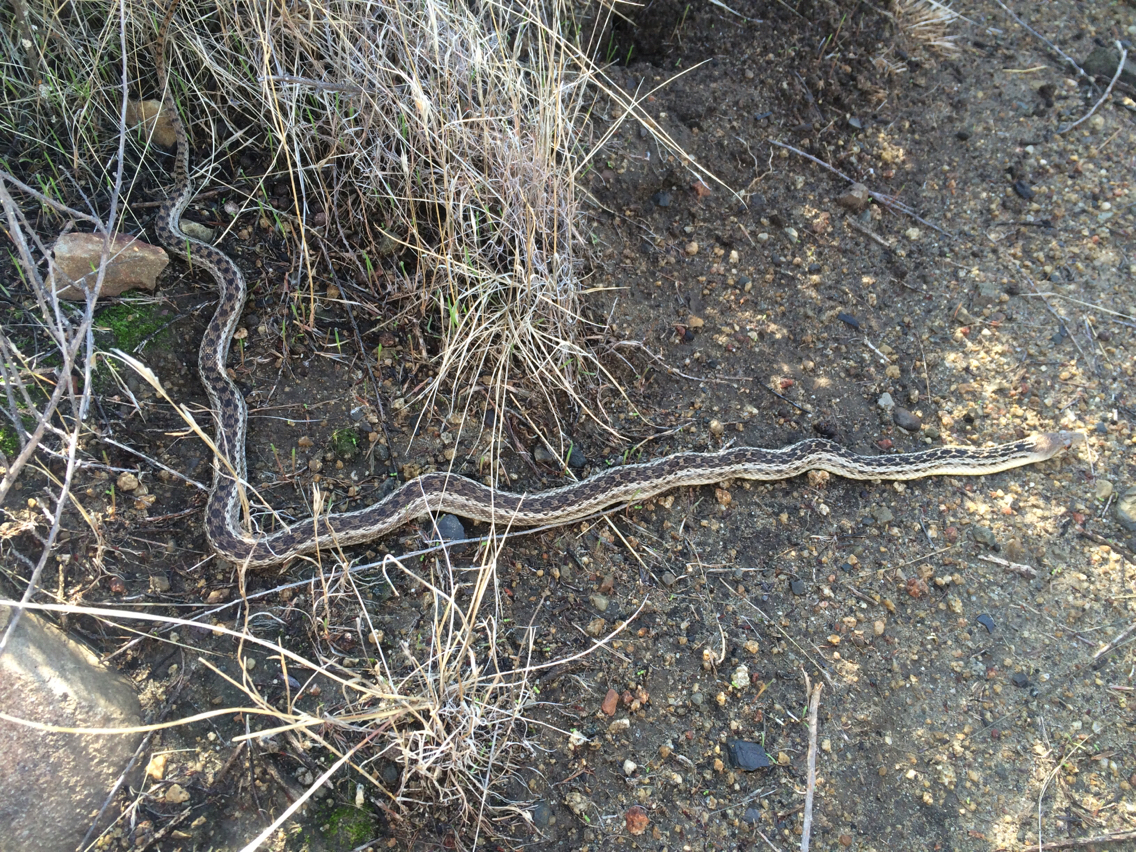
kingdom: Animalia
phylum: Chordata
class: Squamata
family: Colubridae
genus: Pituophis
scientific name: Pituophis catenifer
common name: Gopher snake
